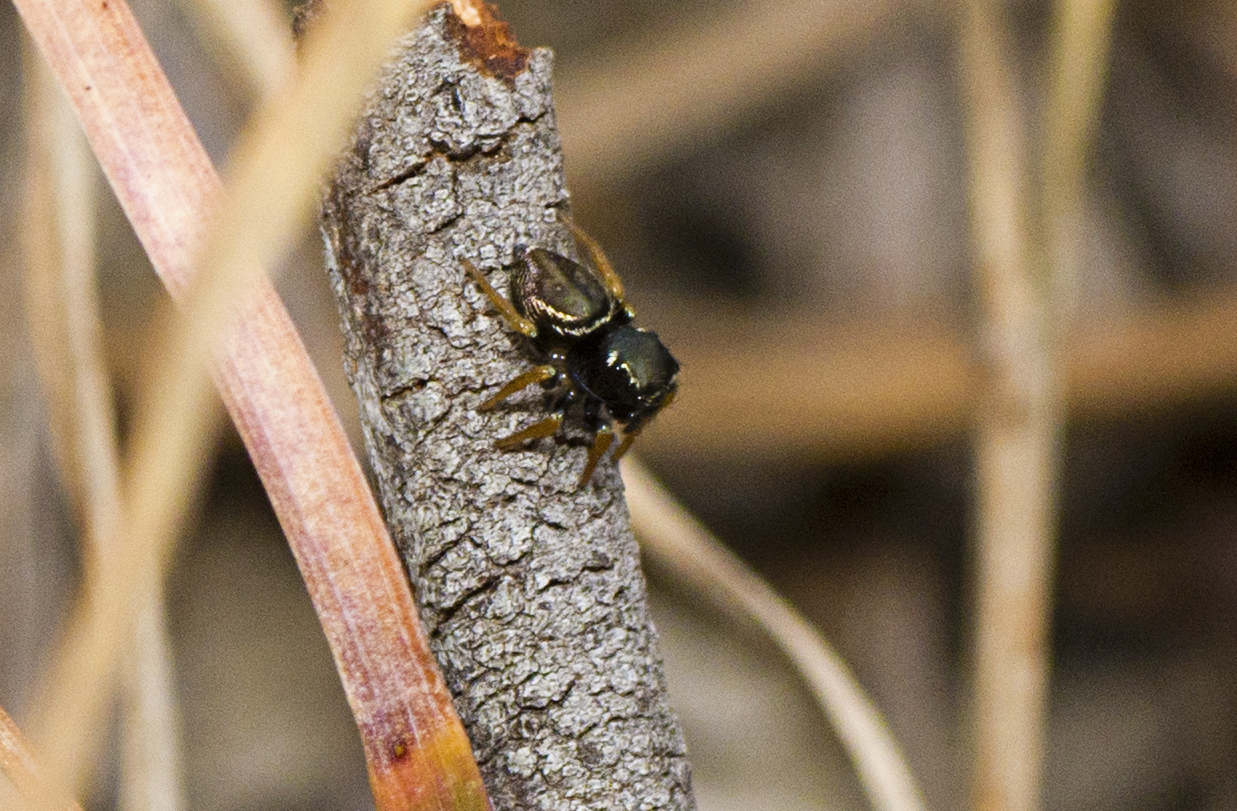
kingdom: Animalia
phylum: Arthropoda
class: Arachnida
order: Araneae
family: Salticidae
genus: Zenodorus
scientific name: Zenodorus orbiculatus
